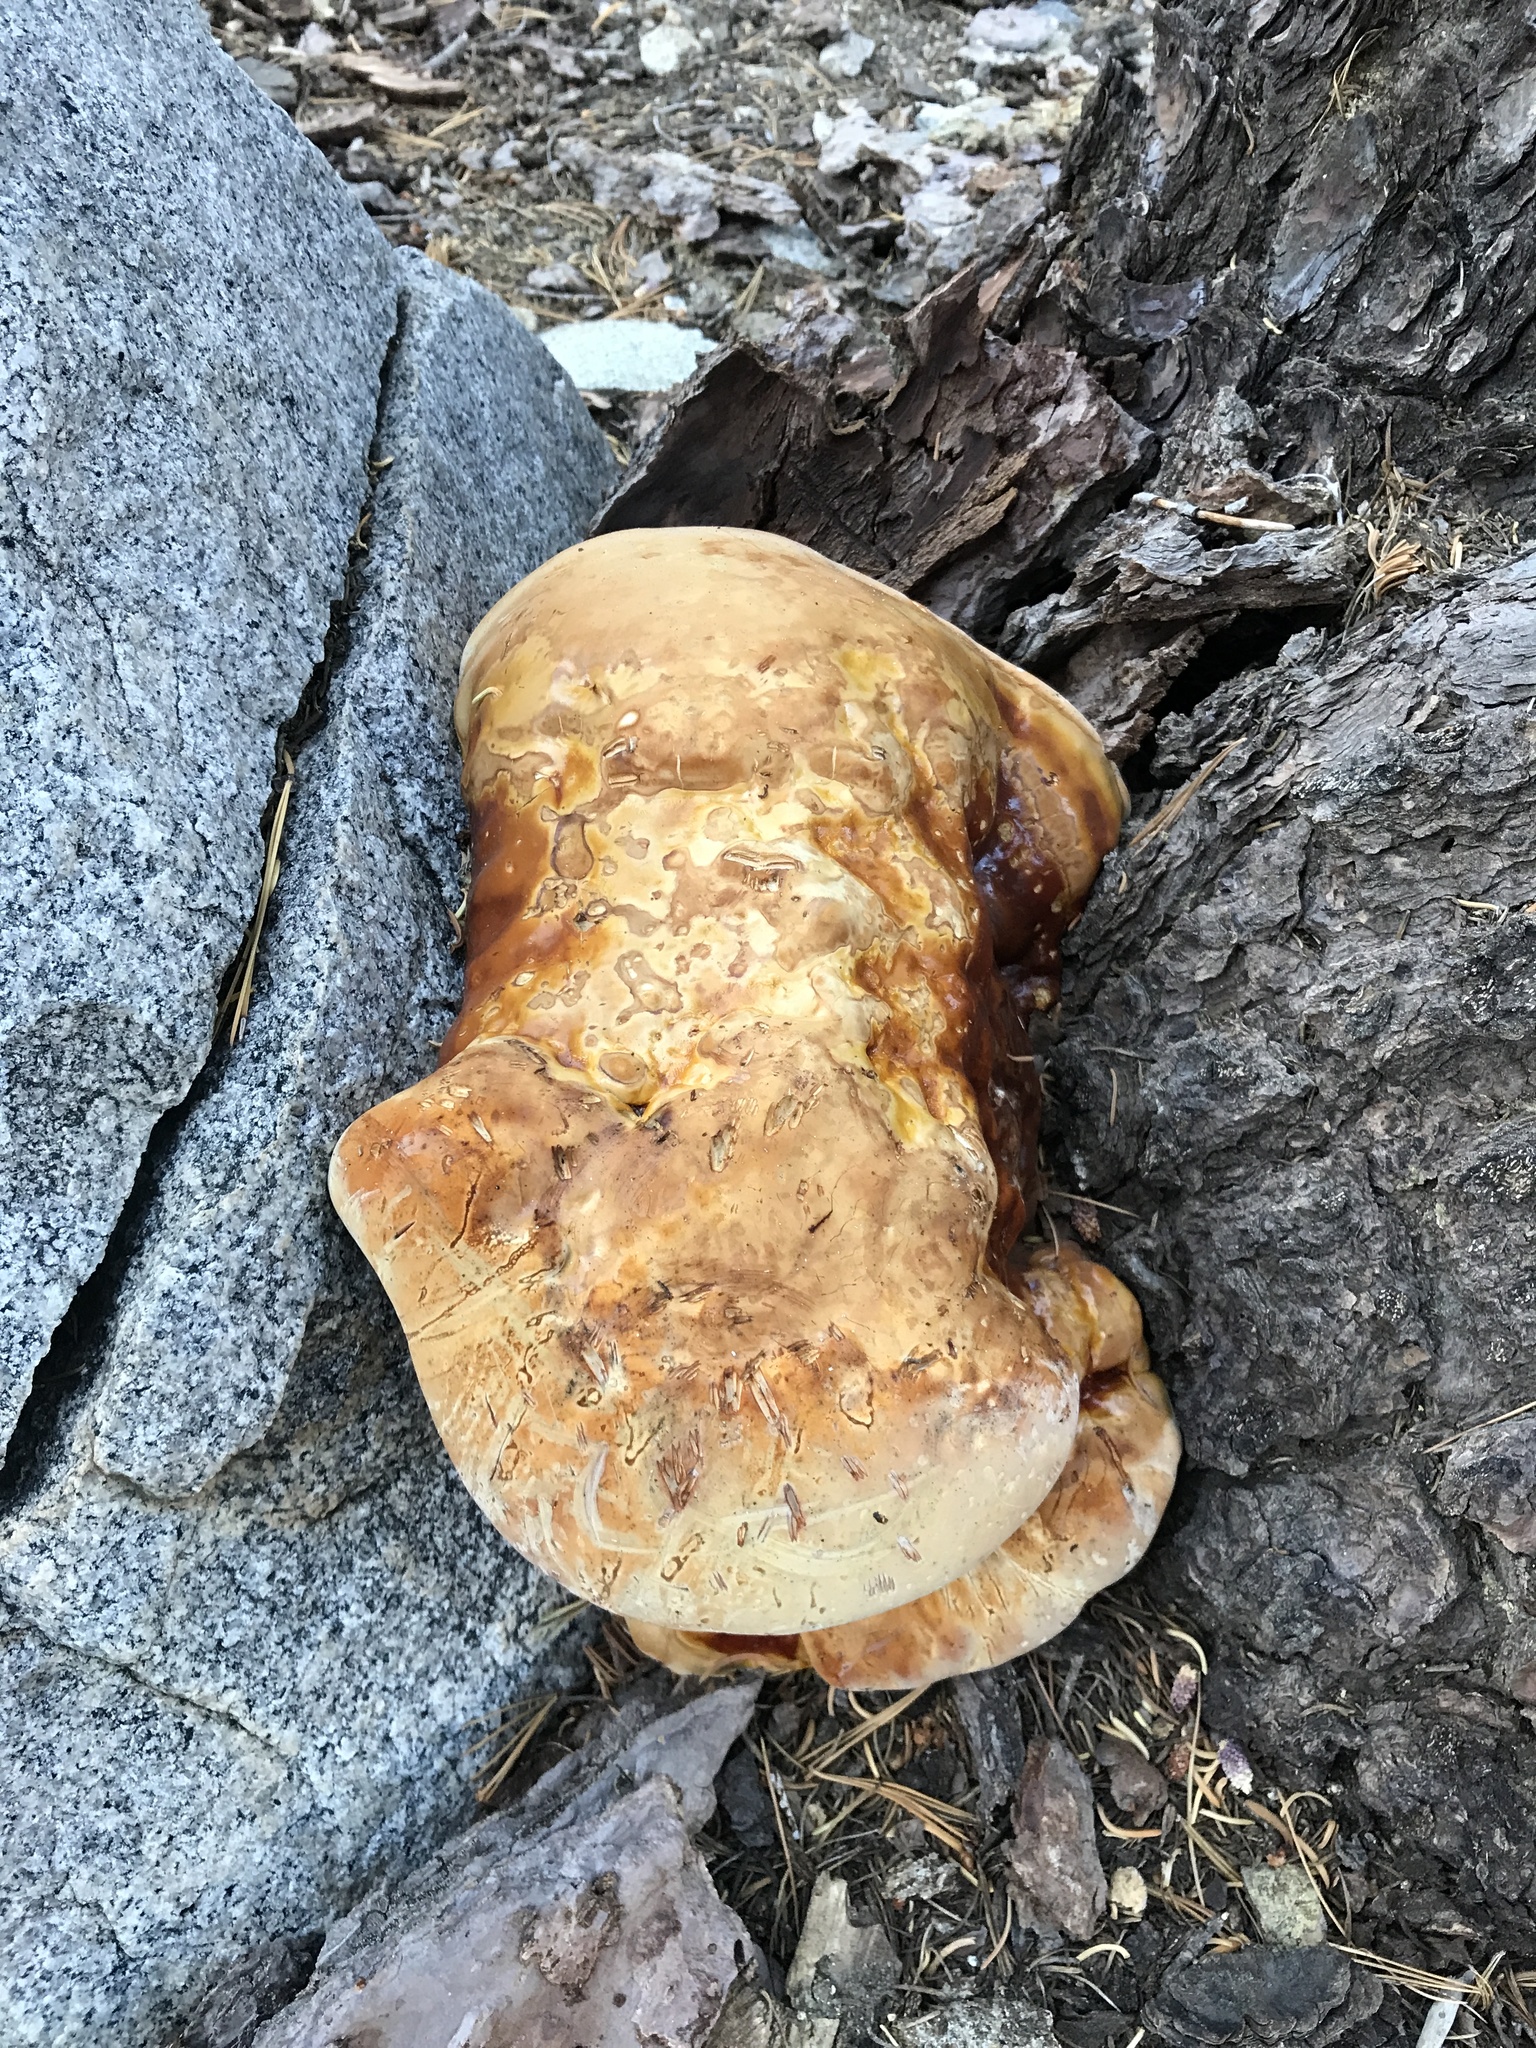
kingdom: Fungi
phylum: Basidiomycota
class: Agaricomycetes
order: Polyporales
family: Polyporaceae
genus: Ganoderma
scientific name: Ganoderma polychromum
